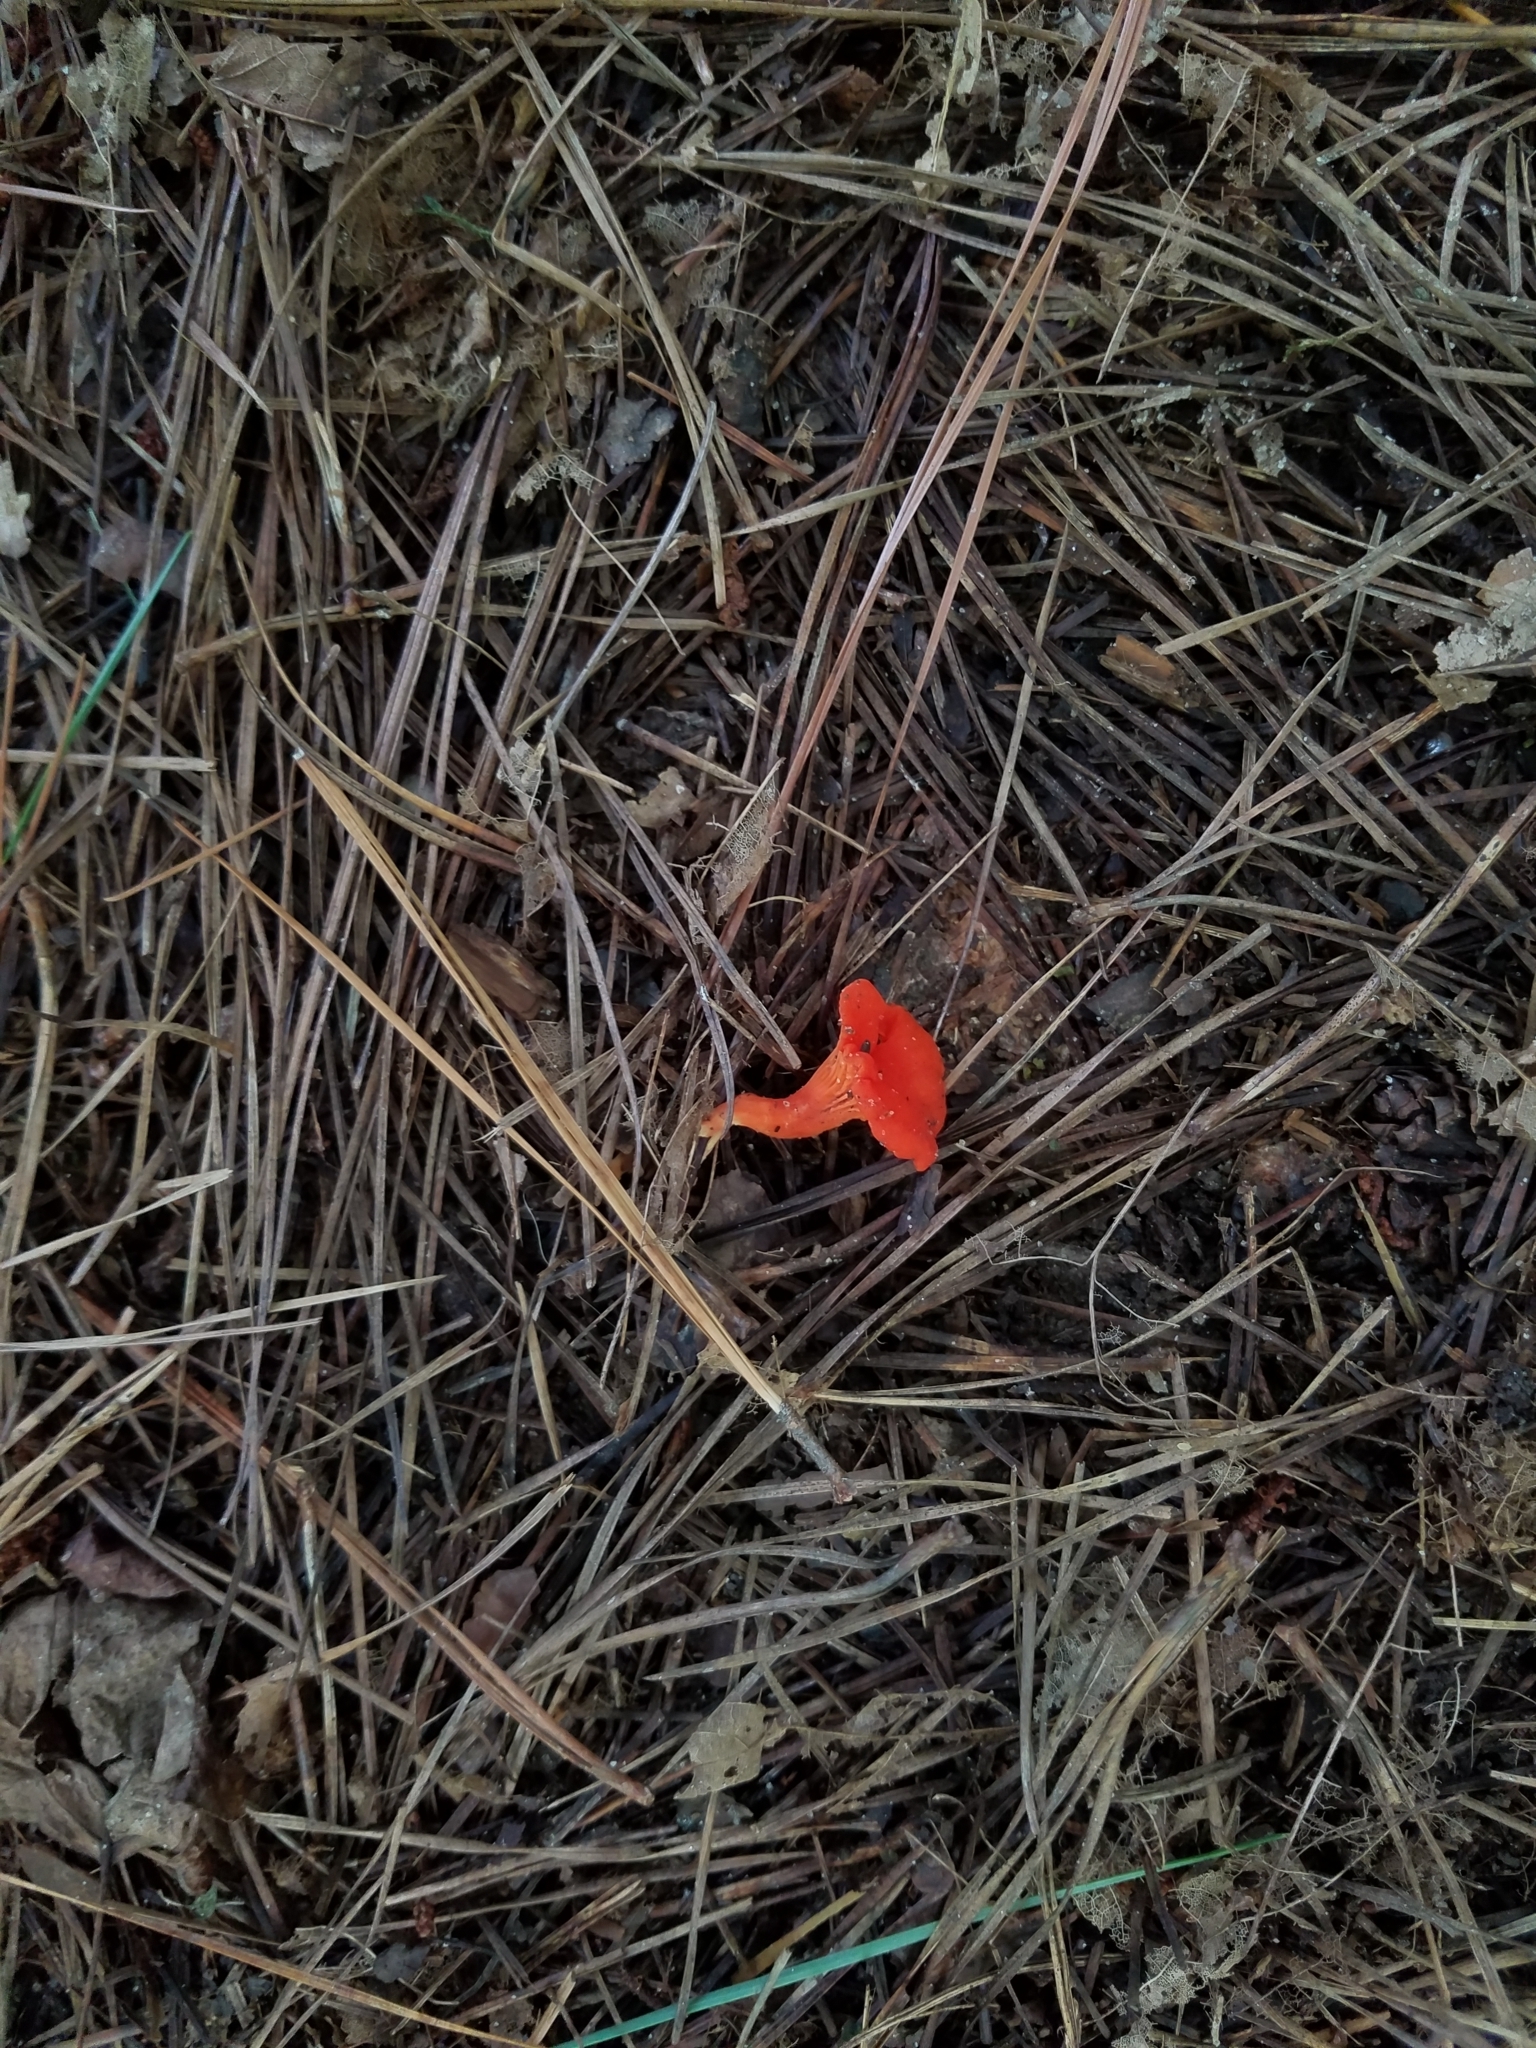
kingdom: Fungi
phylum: Basidiomycota
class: Agaricomycetes
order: Cantharellales
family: Hydnaceae
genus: Cantharellus
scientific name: Cantharellus cinnabarinus
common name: Cinnabar chanterelle
